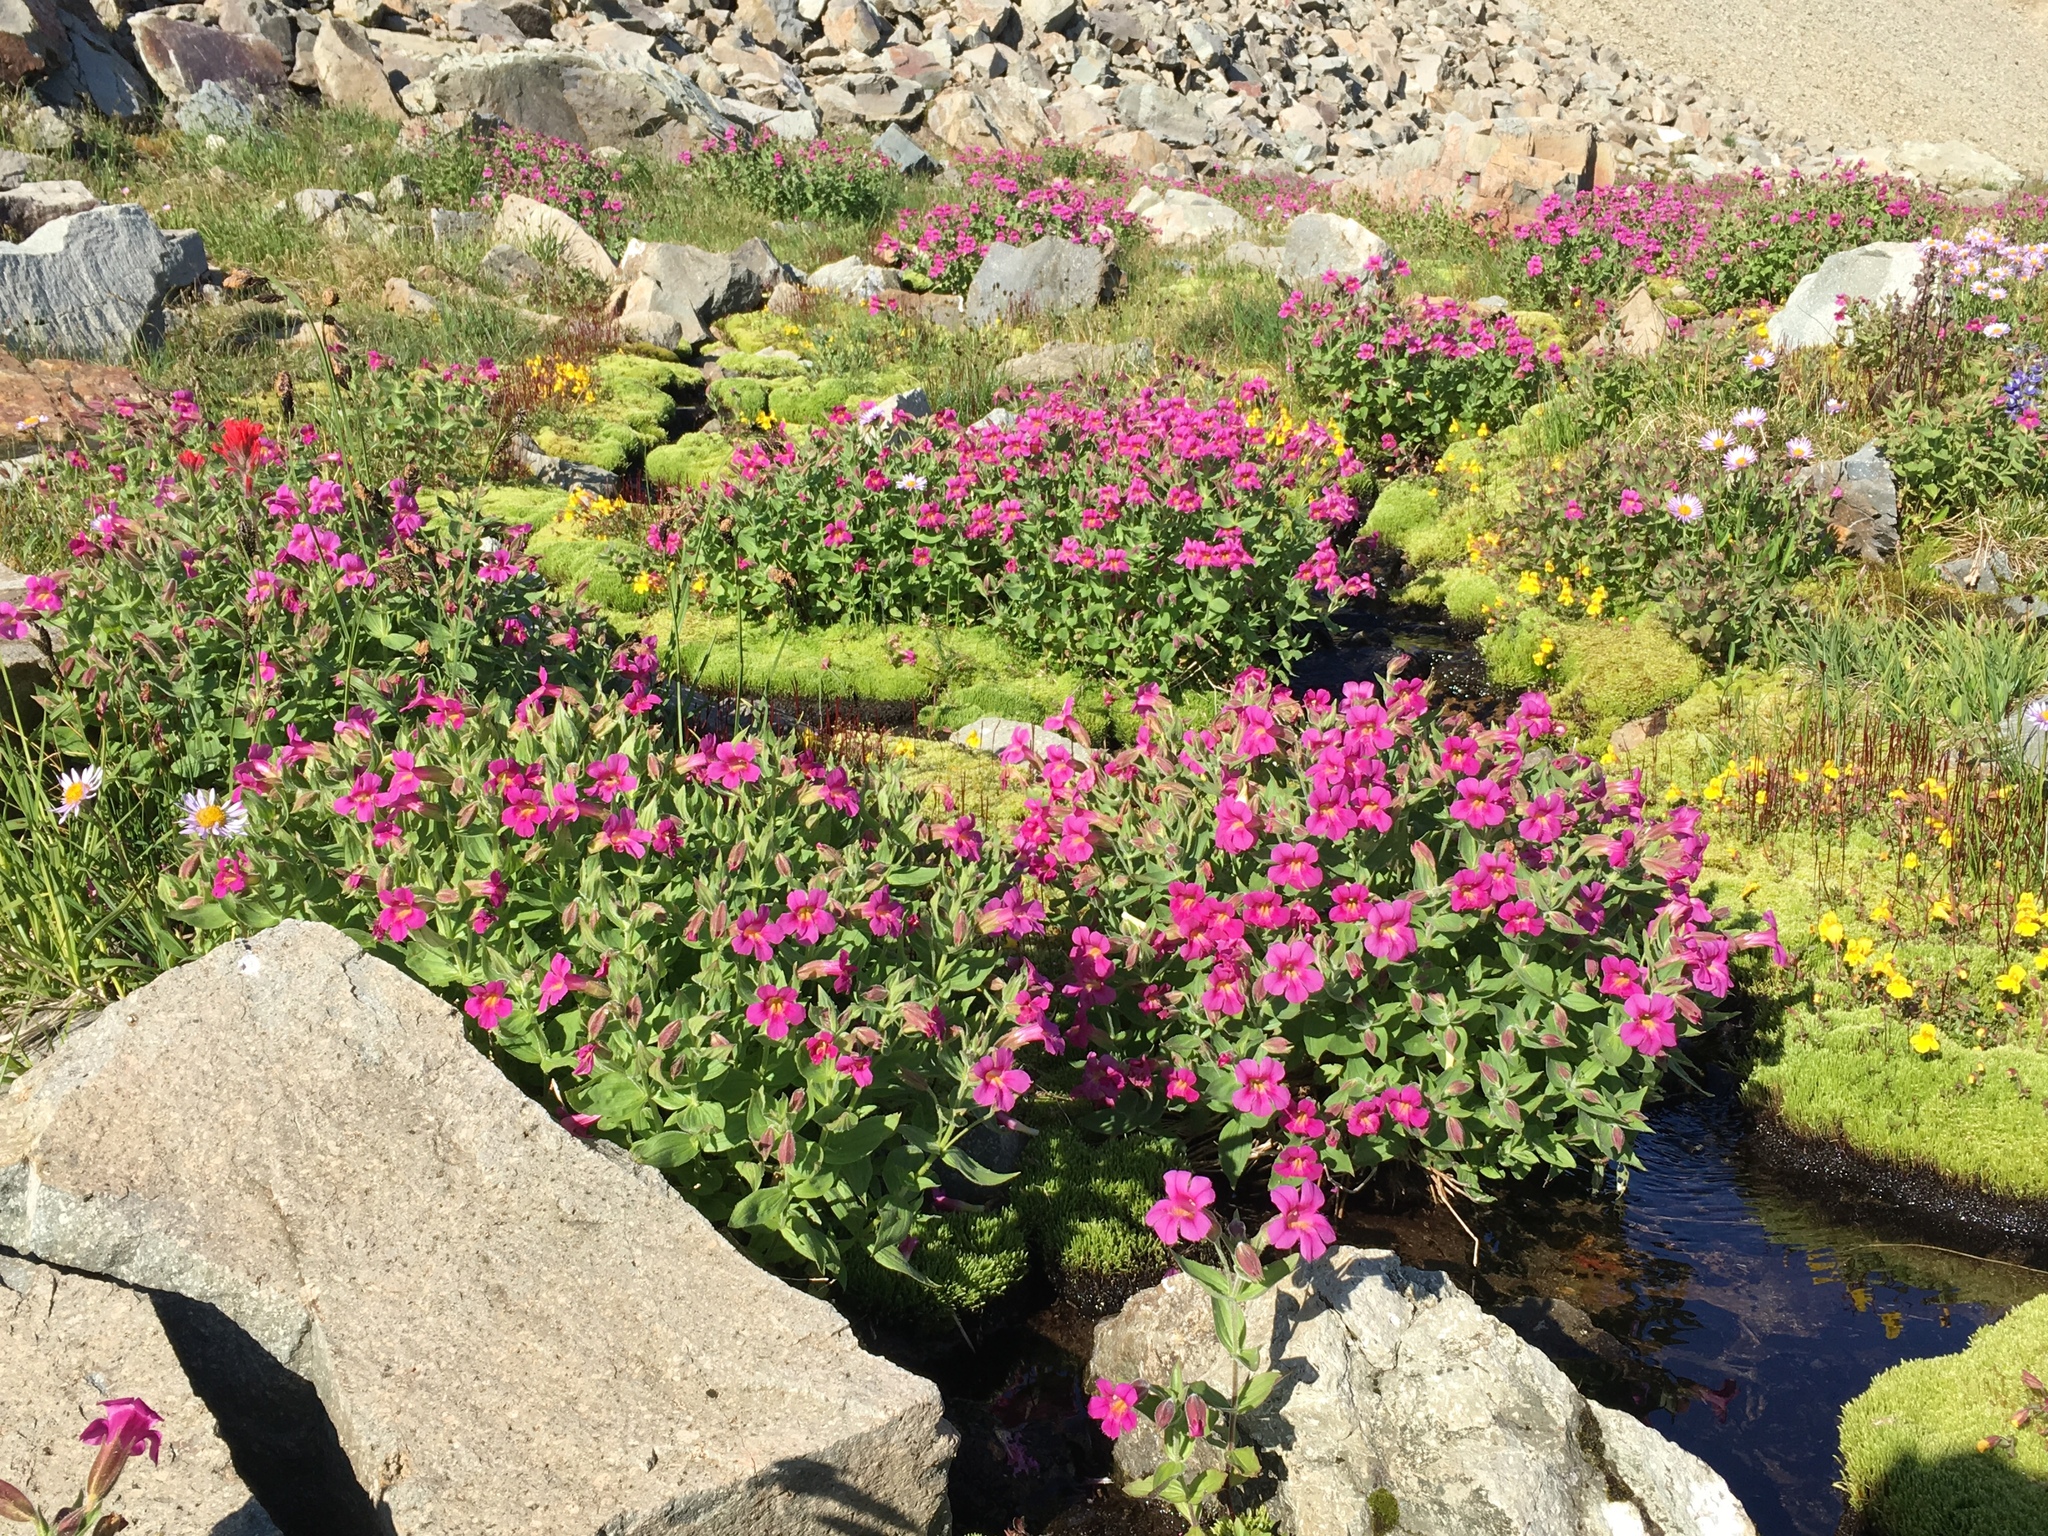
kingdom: Plantae
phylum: Tracheophyta
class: Magnoliopsida
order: Lamiales
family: Phrymaceae
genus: Erythranthe
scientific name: Erythranthe lewisii
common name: Lewis's monkey-flower
